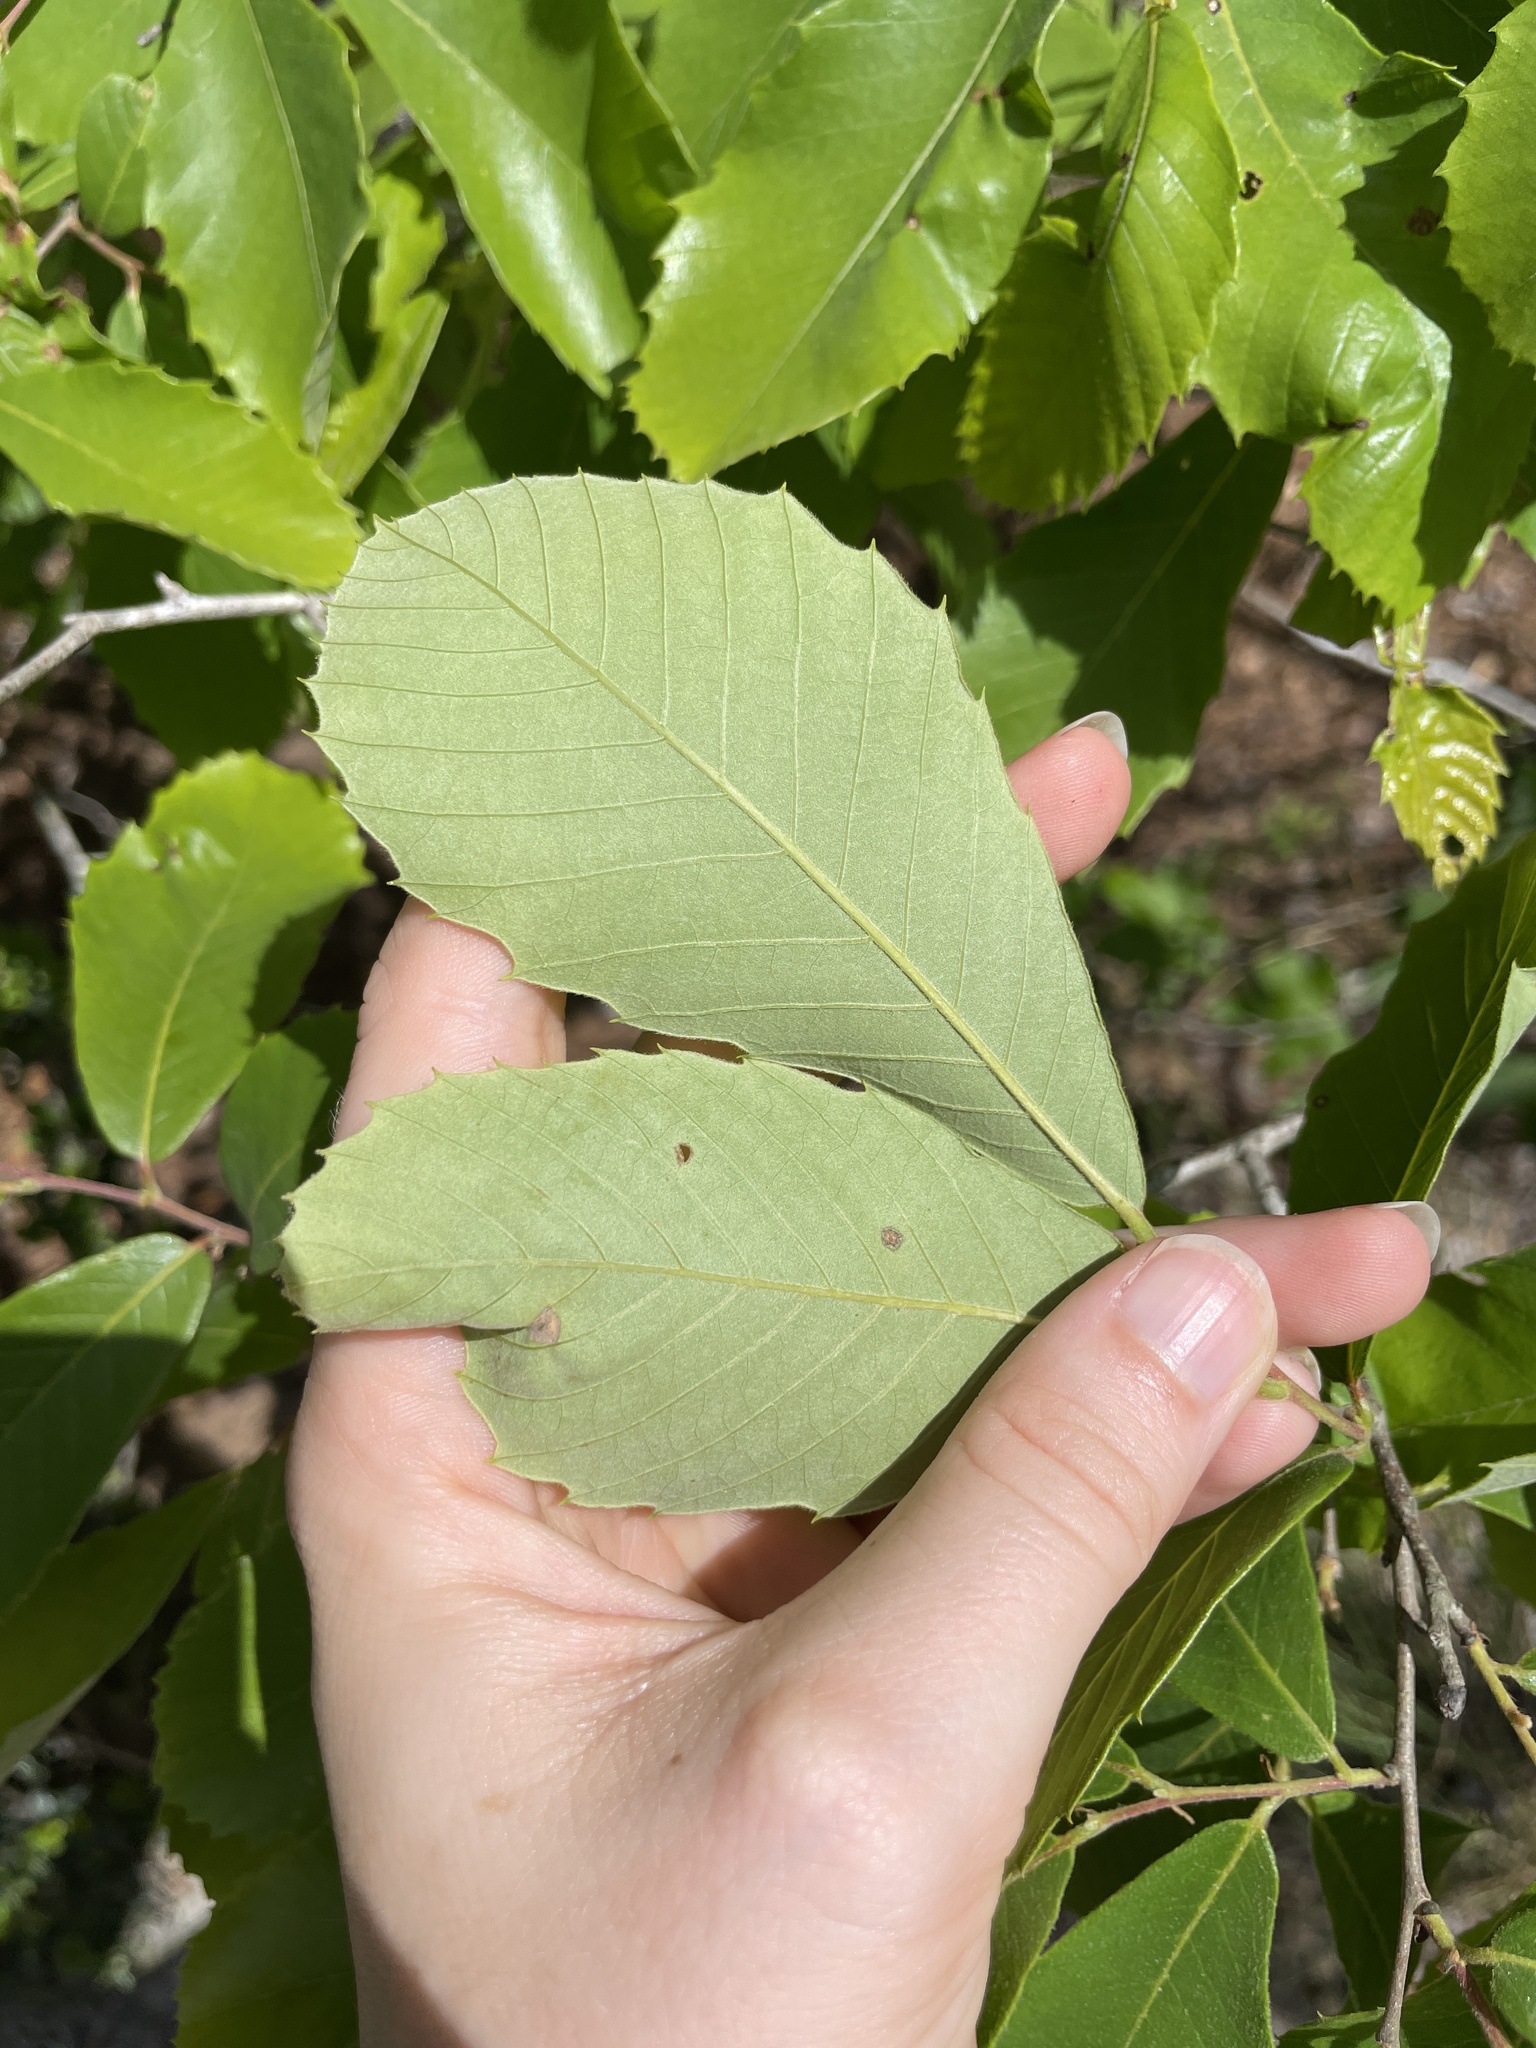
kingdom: Plantae
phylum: Tracheophyta
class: Magnoliopsida
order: Fagales
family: Fagaceae
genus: Castanea
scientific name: Castanea pumila
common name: Chinkapin
